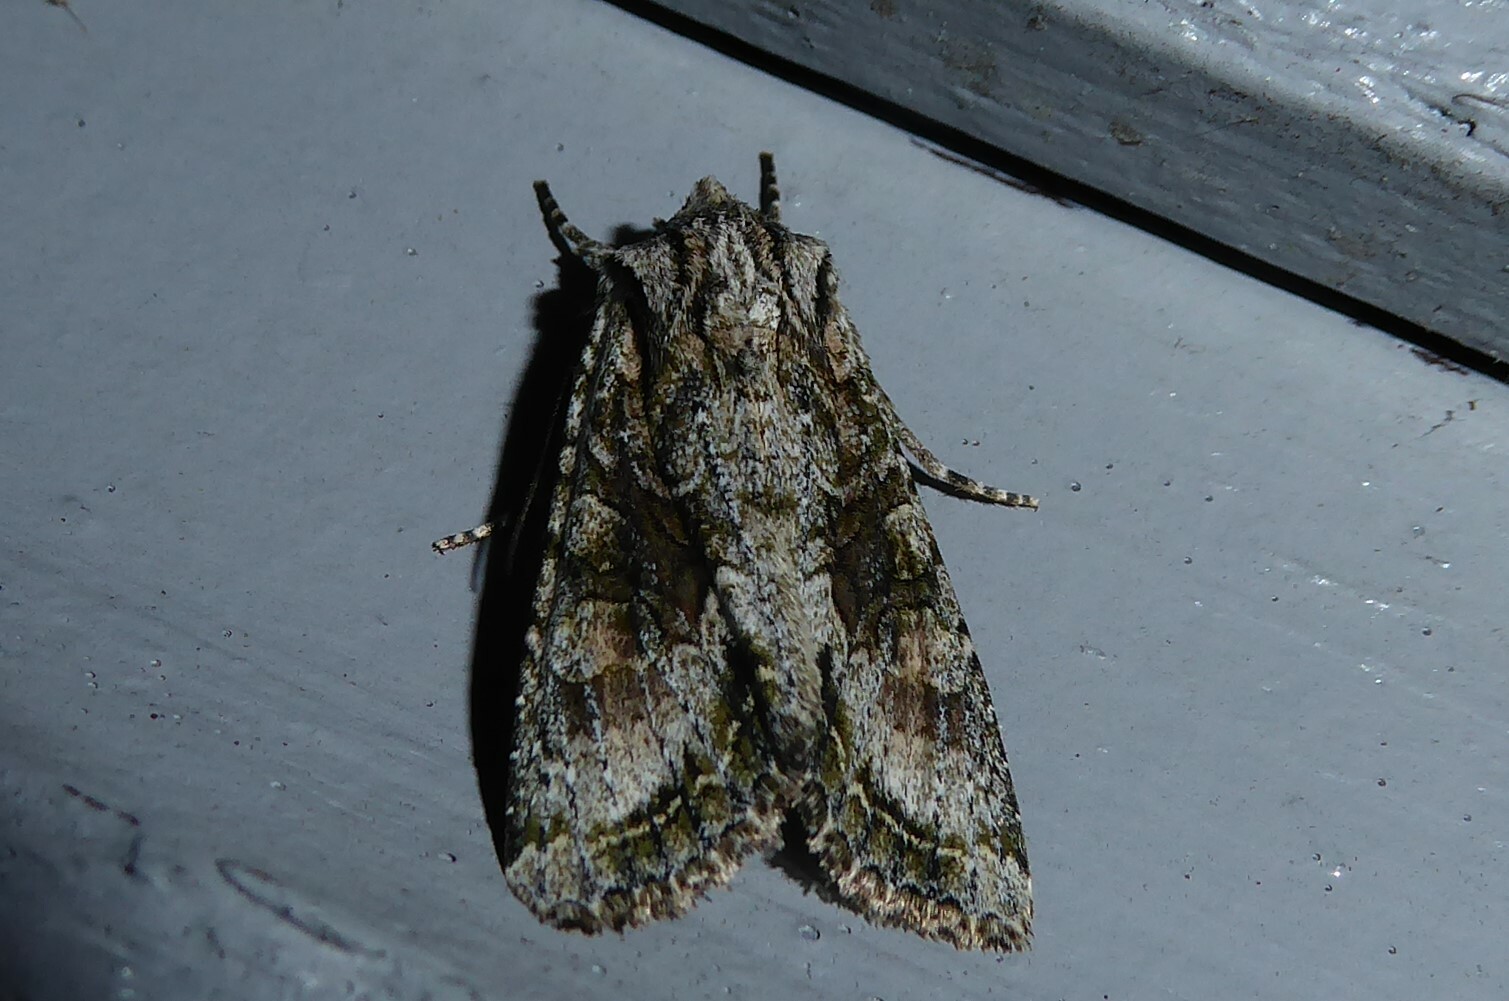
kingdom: Animalia
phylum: Arthropoda
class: Insecta
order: Lepidoptera
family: Noctuidae
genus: Ichneutica
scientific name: Ichneutica mutans
